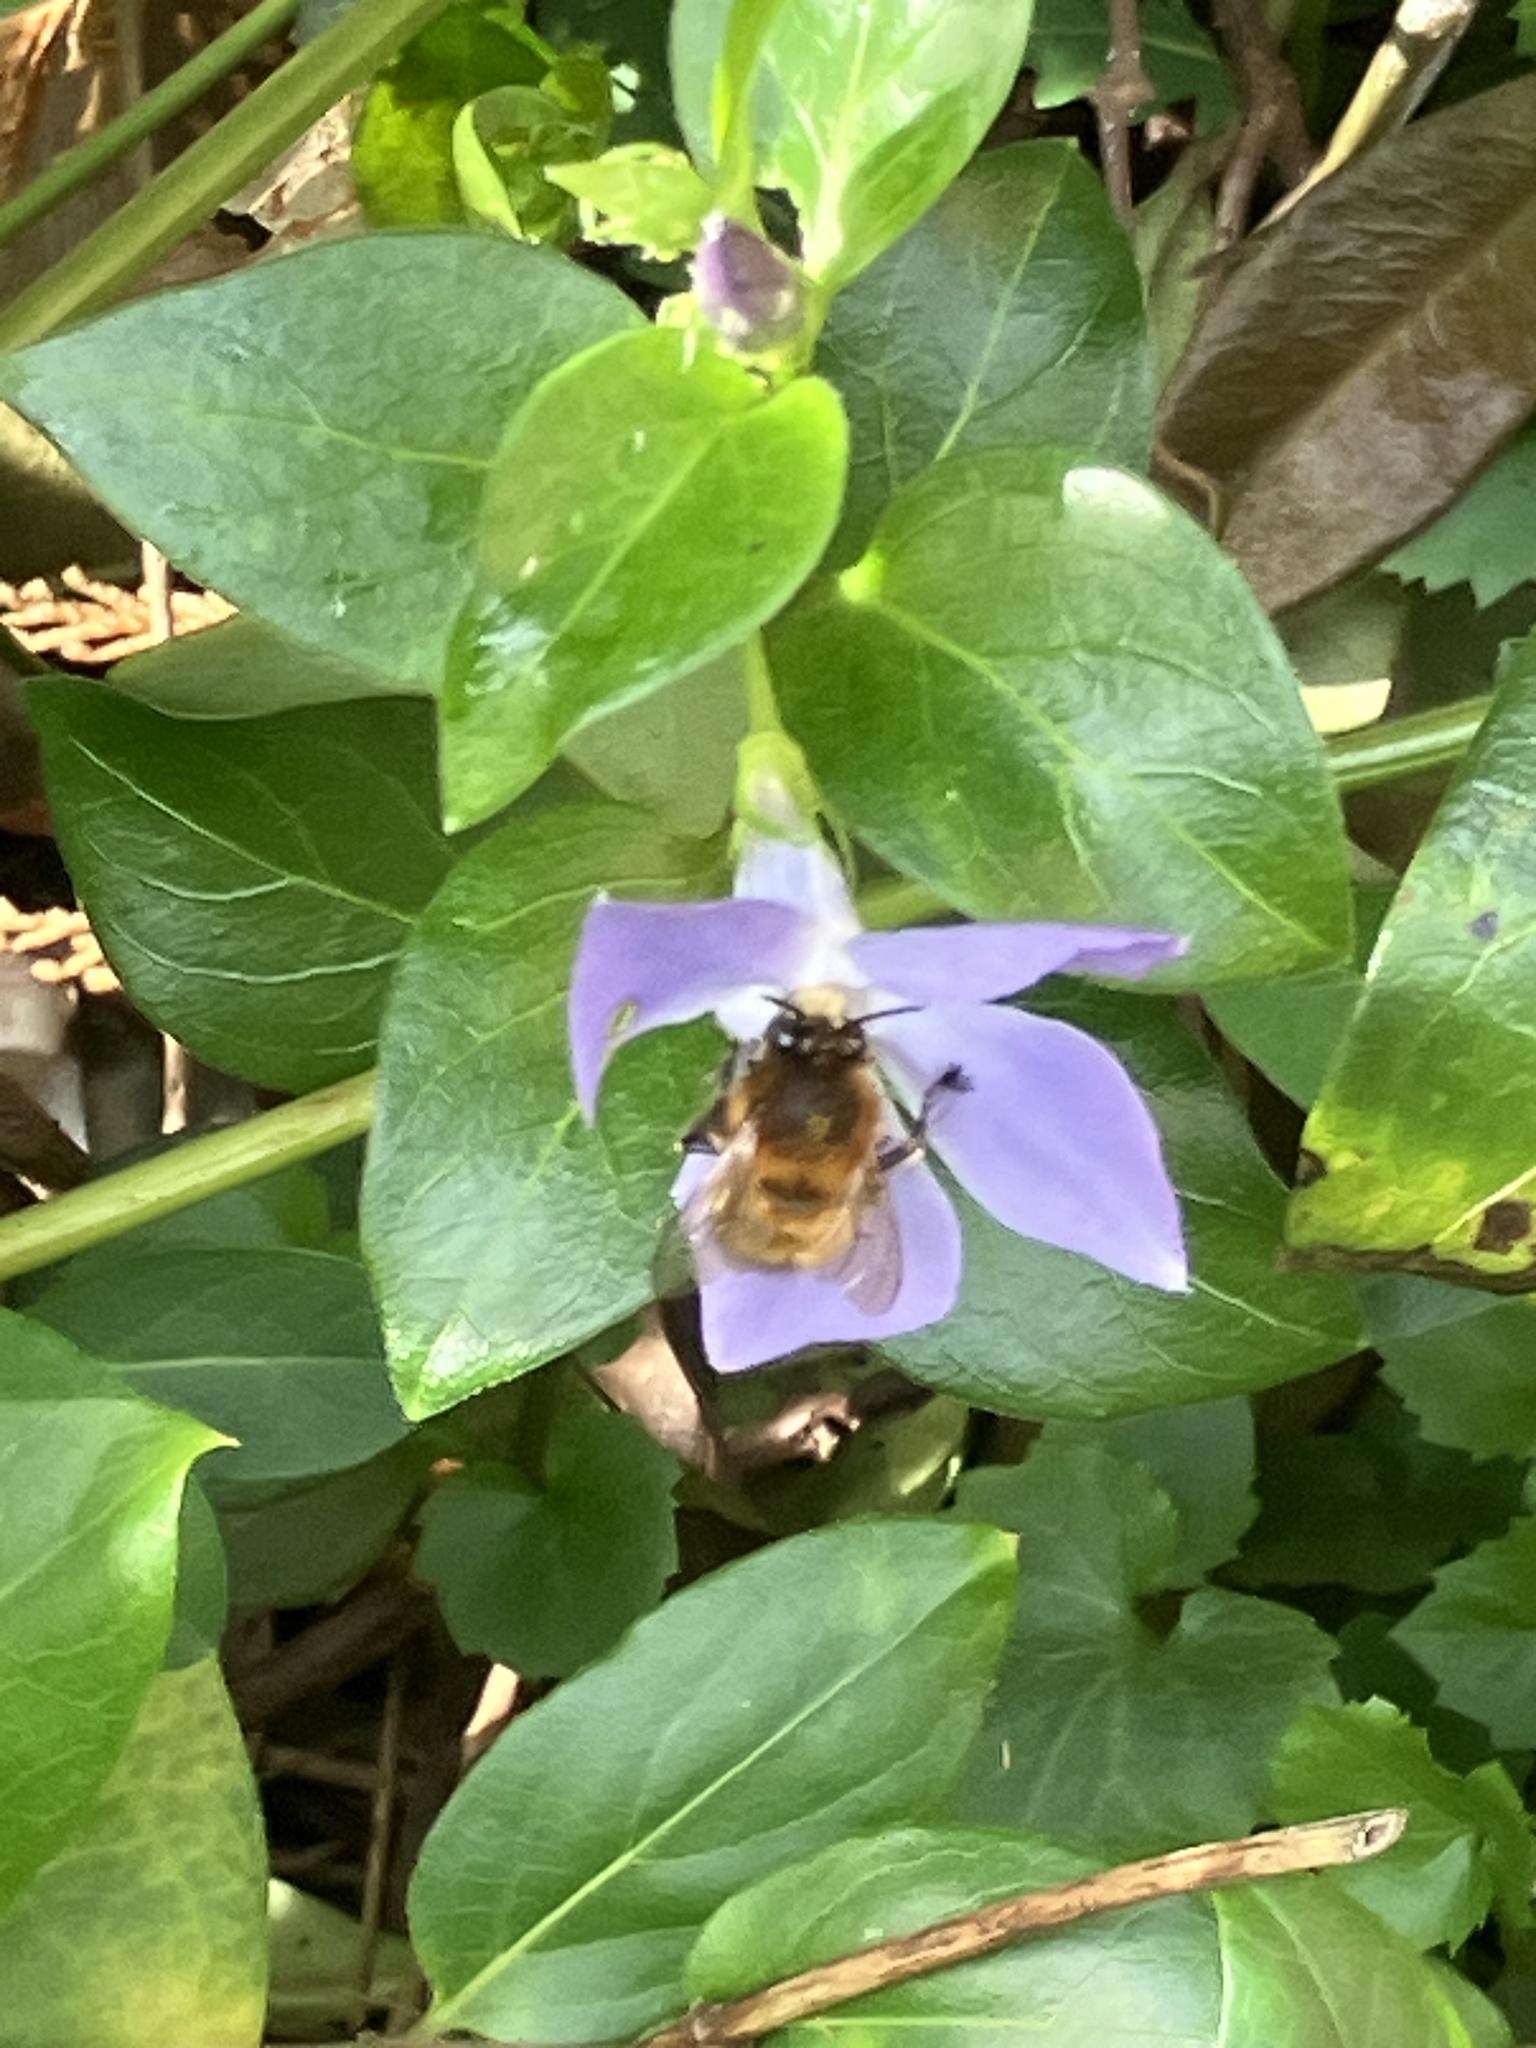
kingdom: Animalia
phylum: Arthropoda
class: Insecta
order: Hymenoptera
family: Apidae
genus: Anthophora
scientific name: Anthophora plumipes
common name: Hairy-footed flower bee
